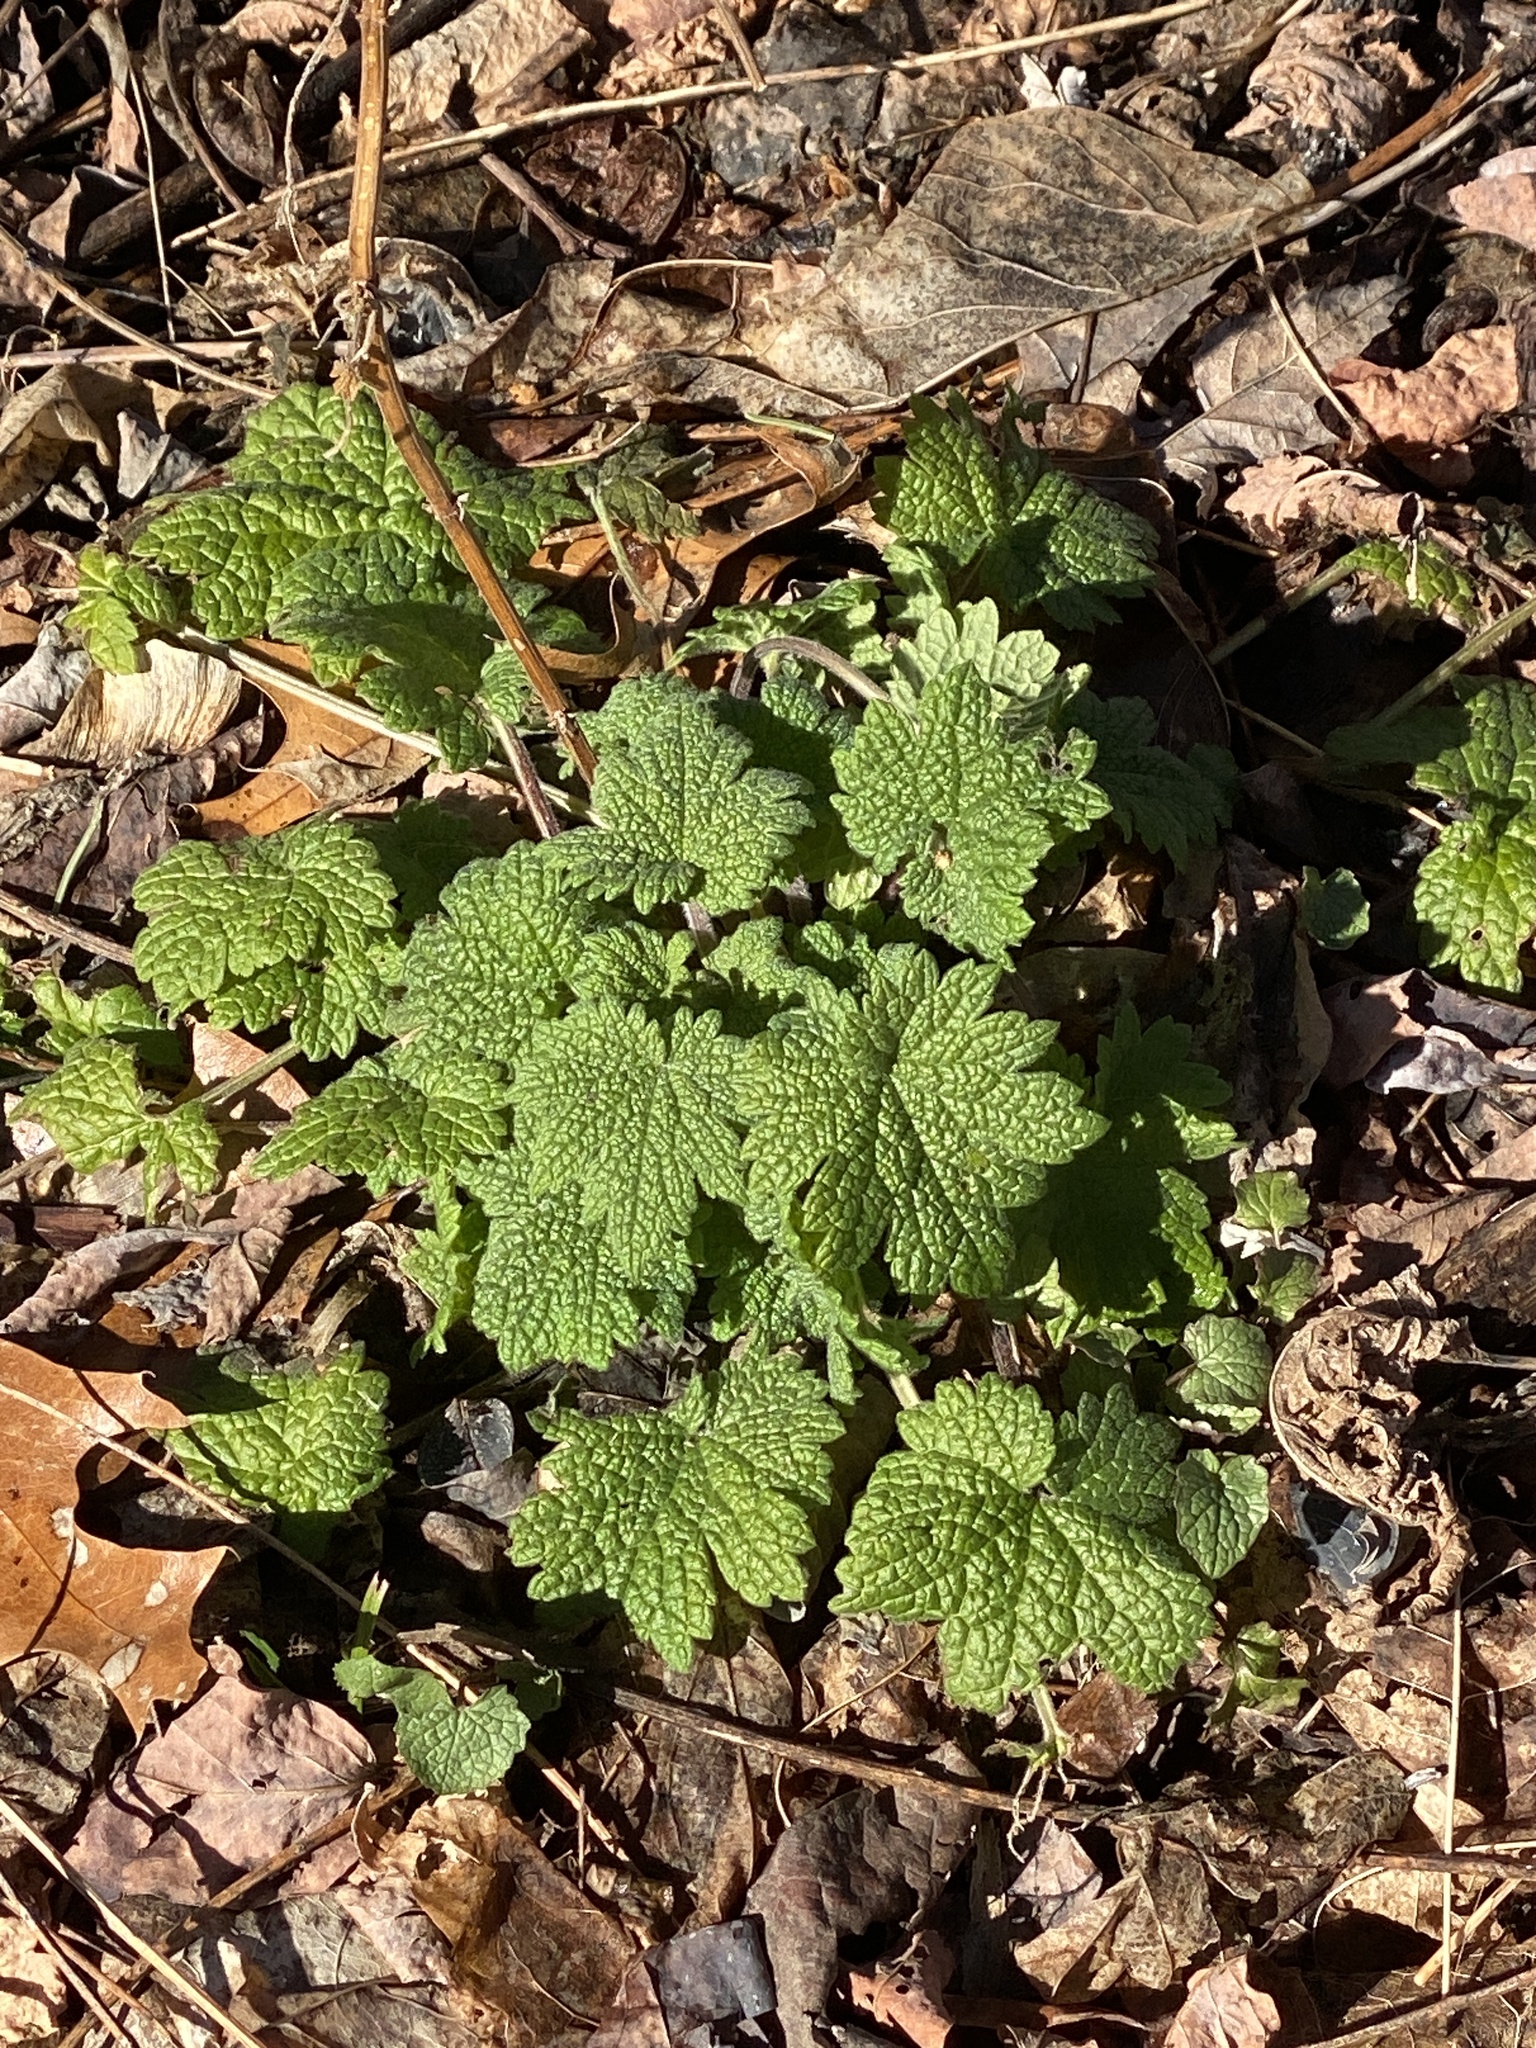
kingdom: Plantae
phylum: Tracheophyta
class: Magnoliopsida
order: Lamiales
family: Lamiaceae
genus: Leonurus
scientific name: Leonurus cardiaca
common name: Motherwort
